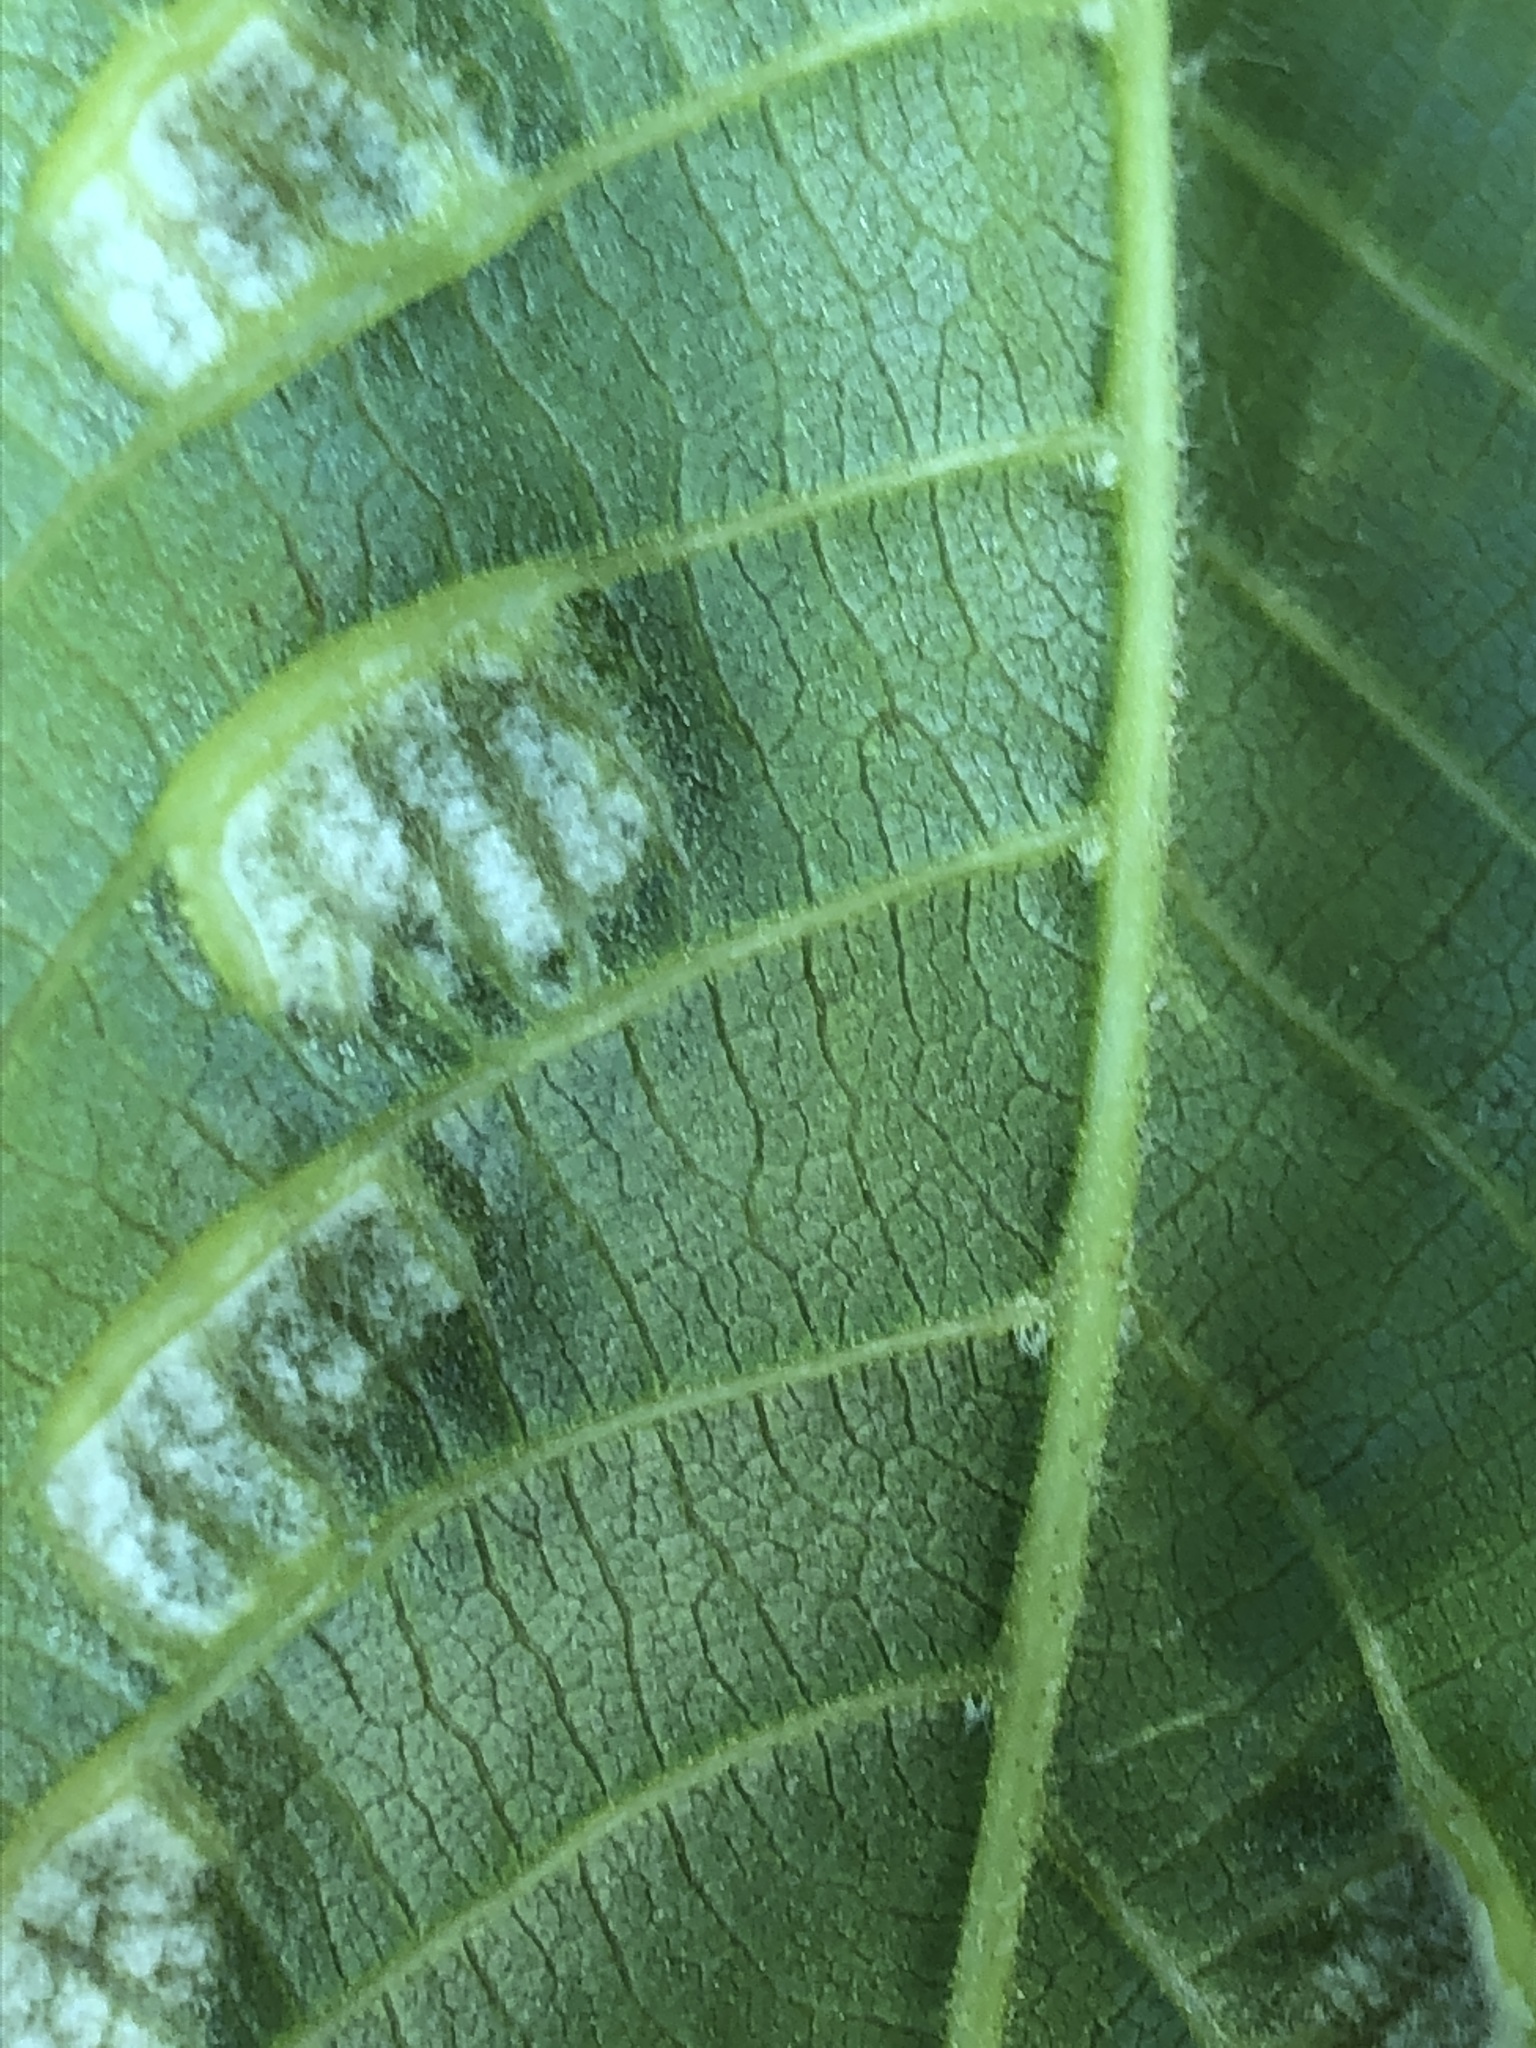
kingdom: Animalia
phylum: Arthropoda
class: Arachnida
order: Trombidiformes
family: Eriophyidae
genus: Aceria
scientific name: Aceria erinea
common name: Persian walnut erineum mite
